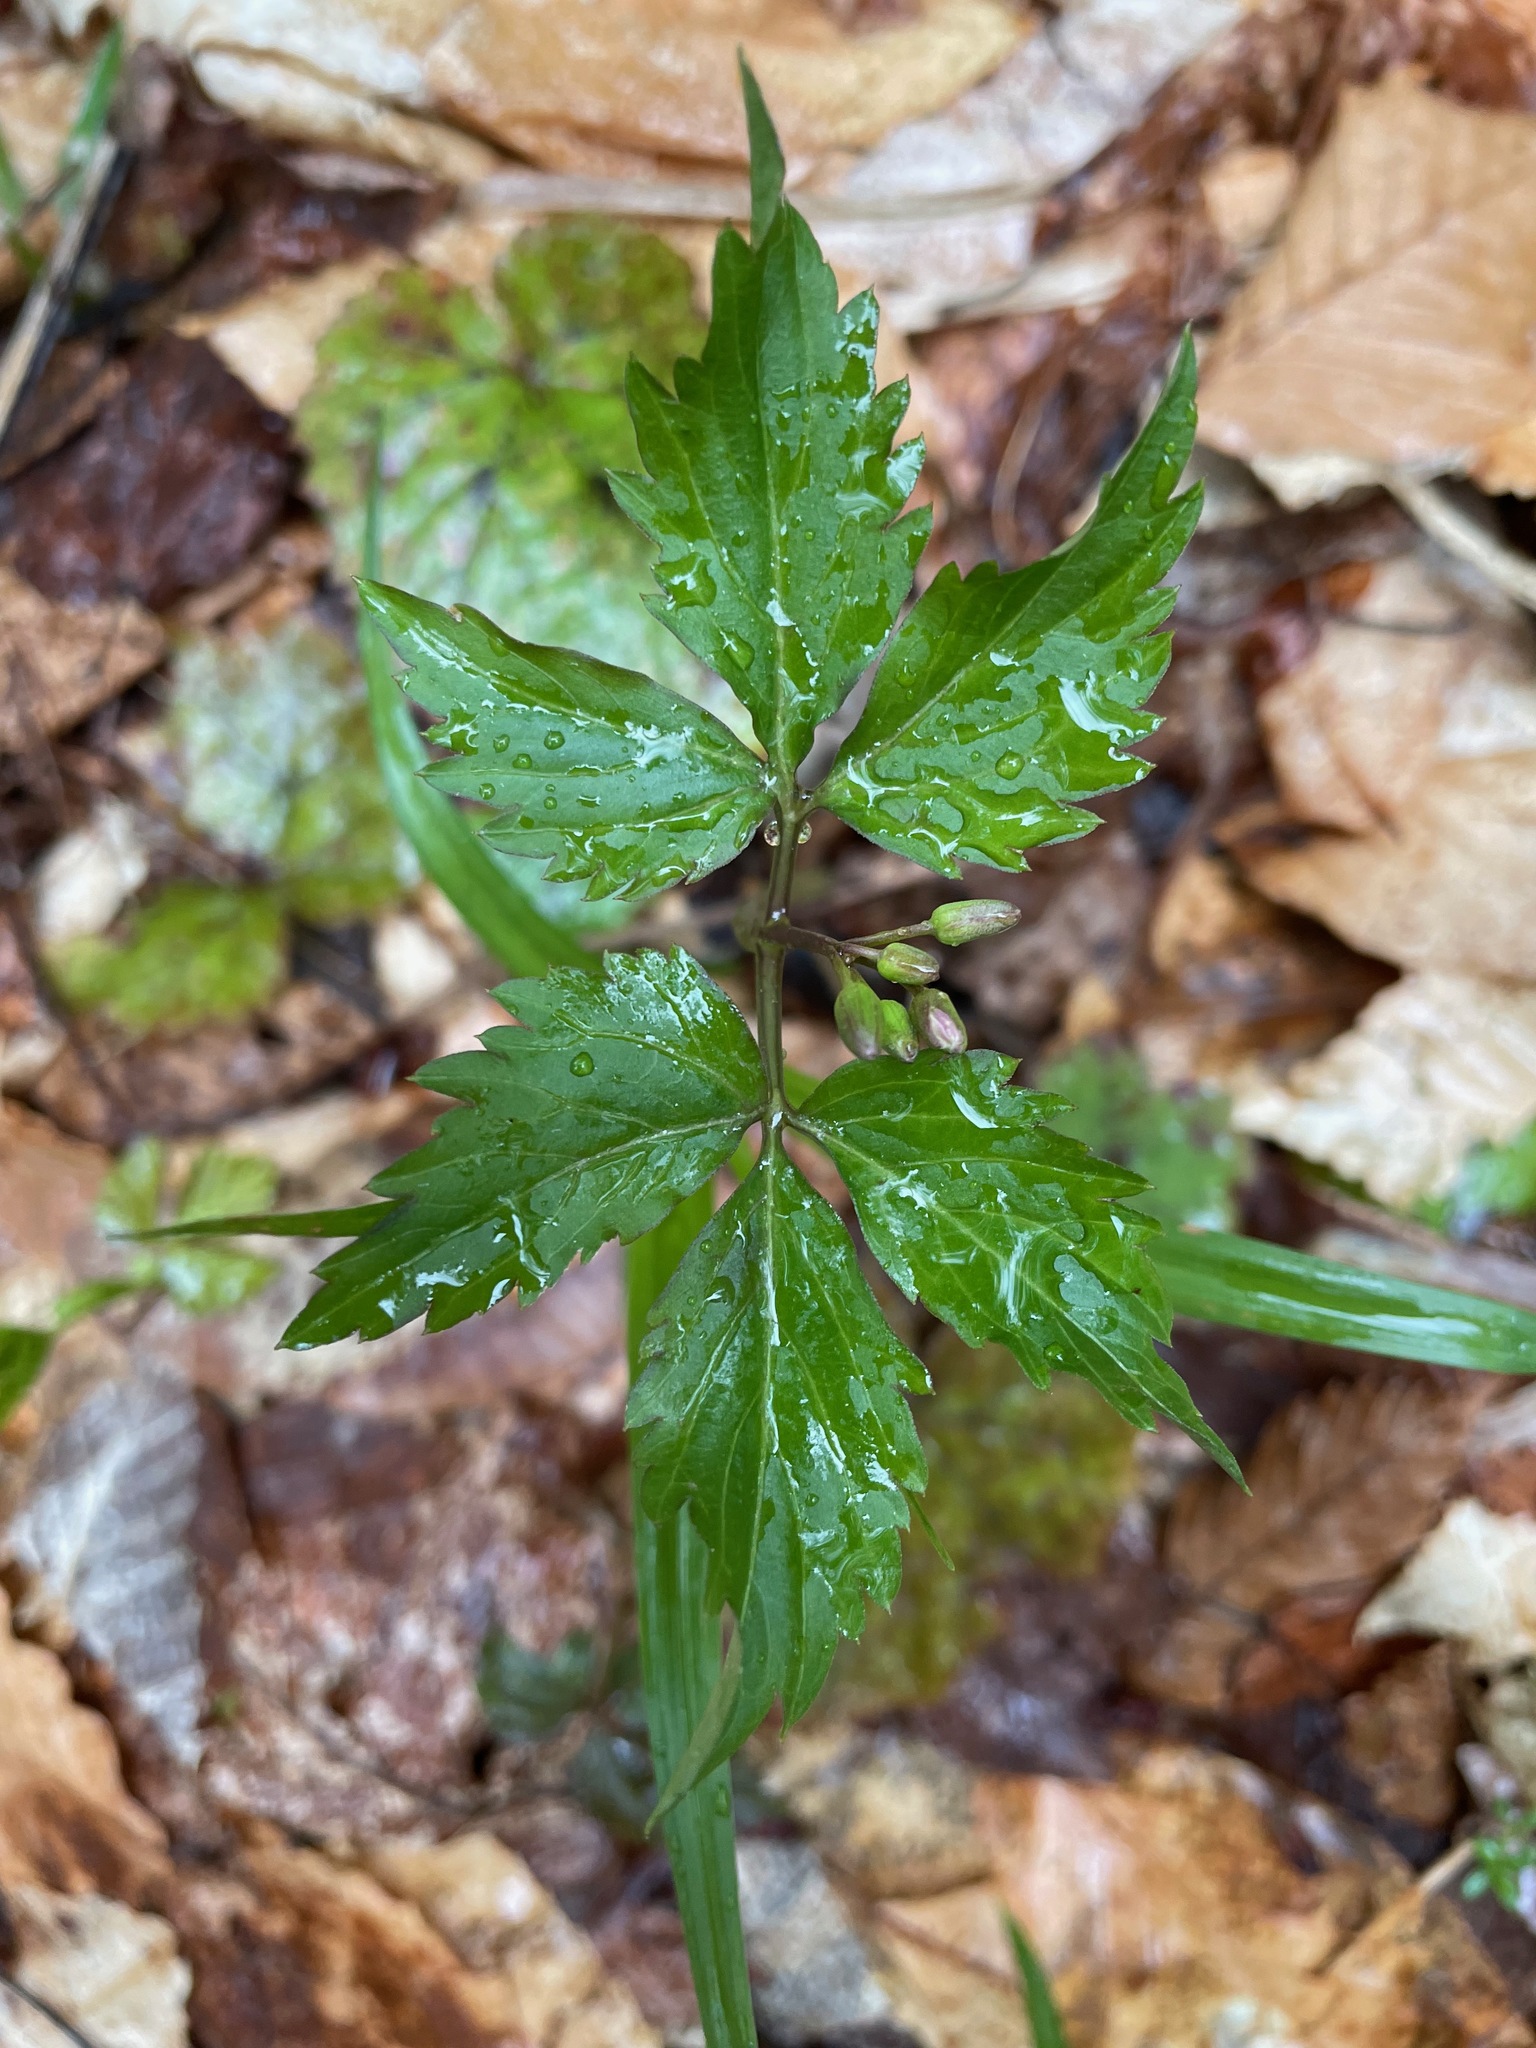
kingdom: Plantae
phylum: Tracheophyta
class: Magnoliopsida
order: Brassicales
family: Brassicaceae
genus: Cardamine
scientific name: Cardamine diphylla
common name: Broad-leaved toothwort
